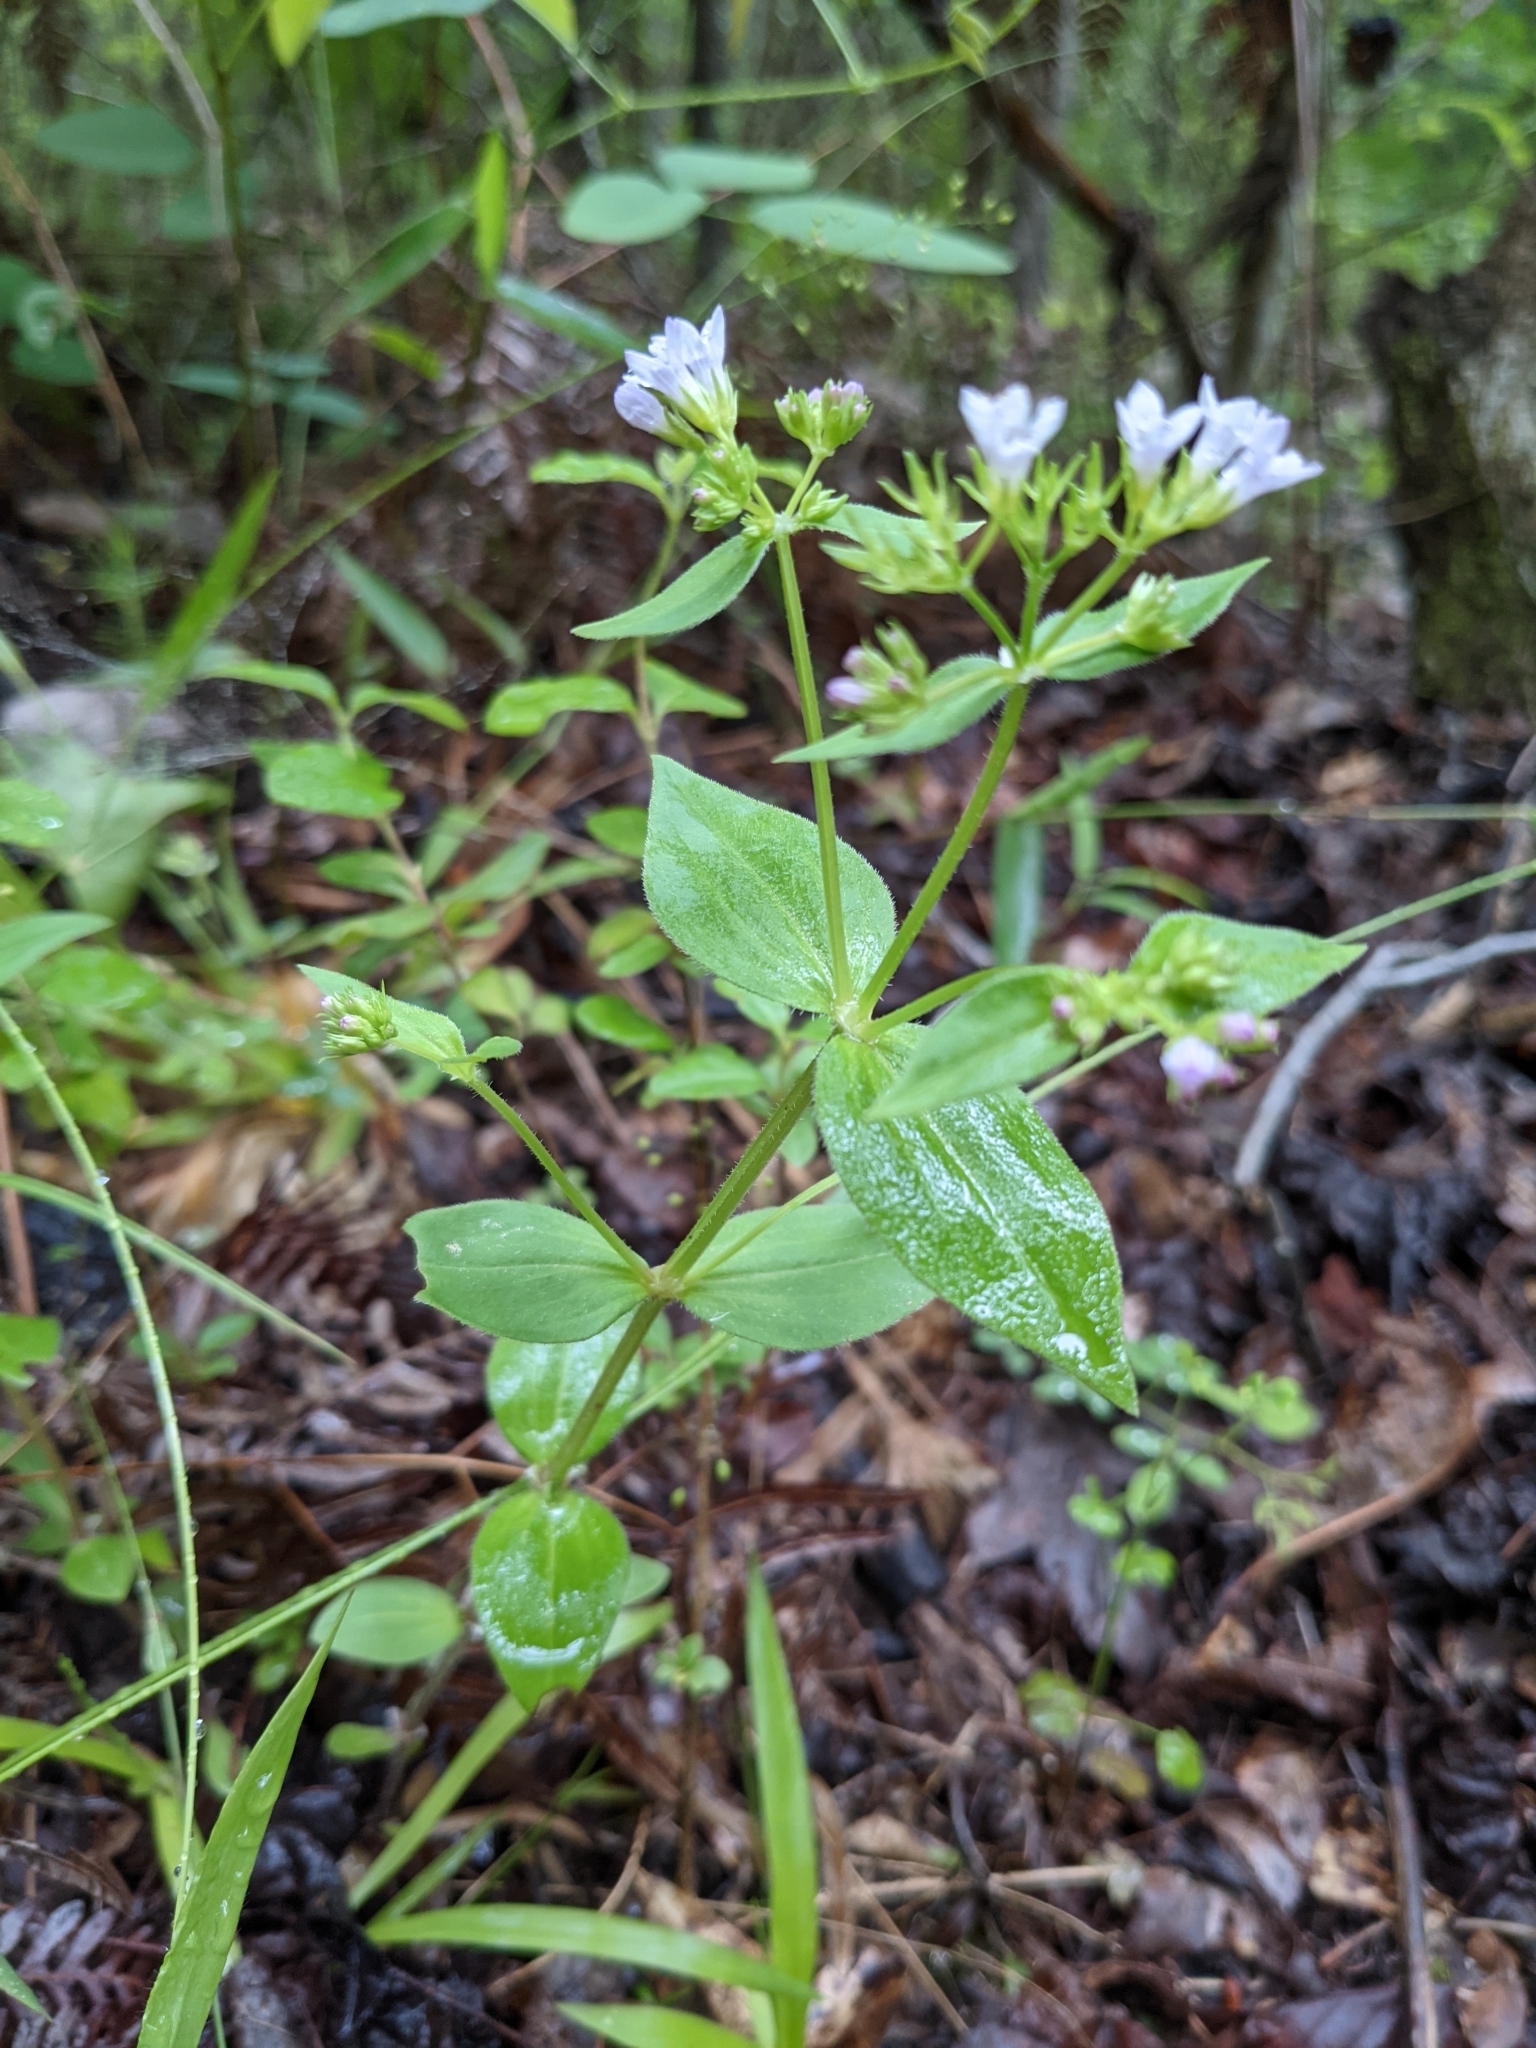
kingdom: Plantae
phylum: Tracheophyta
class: Magnoliopsida
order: Gentianales
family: Rubiaceae
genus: Houstonia
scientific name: Houstonia purpurea
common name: Summer bluet
